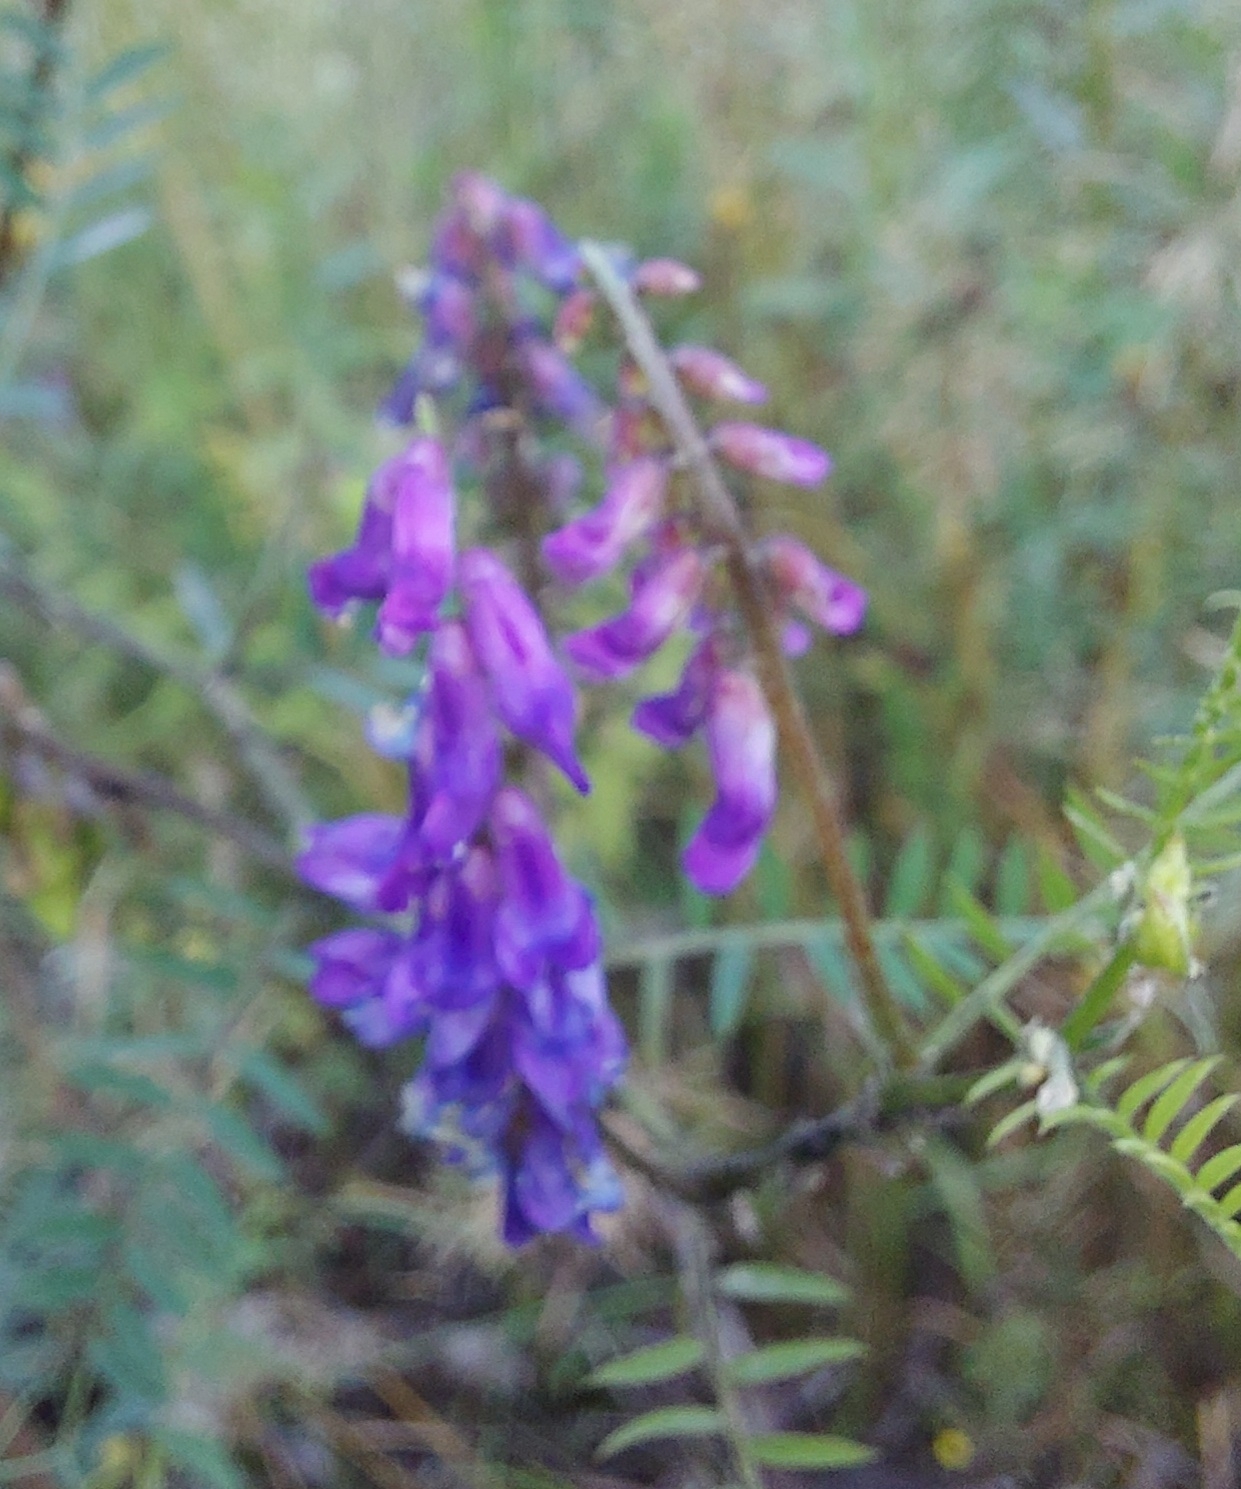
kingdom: Plantae
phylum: Tracheophyta
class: Magnoliopsida
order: Fabales
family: Fabaceae
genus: Vicia
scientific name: Vicia cracca
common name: Bird vetch
